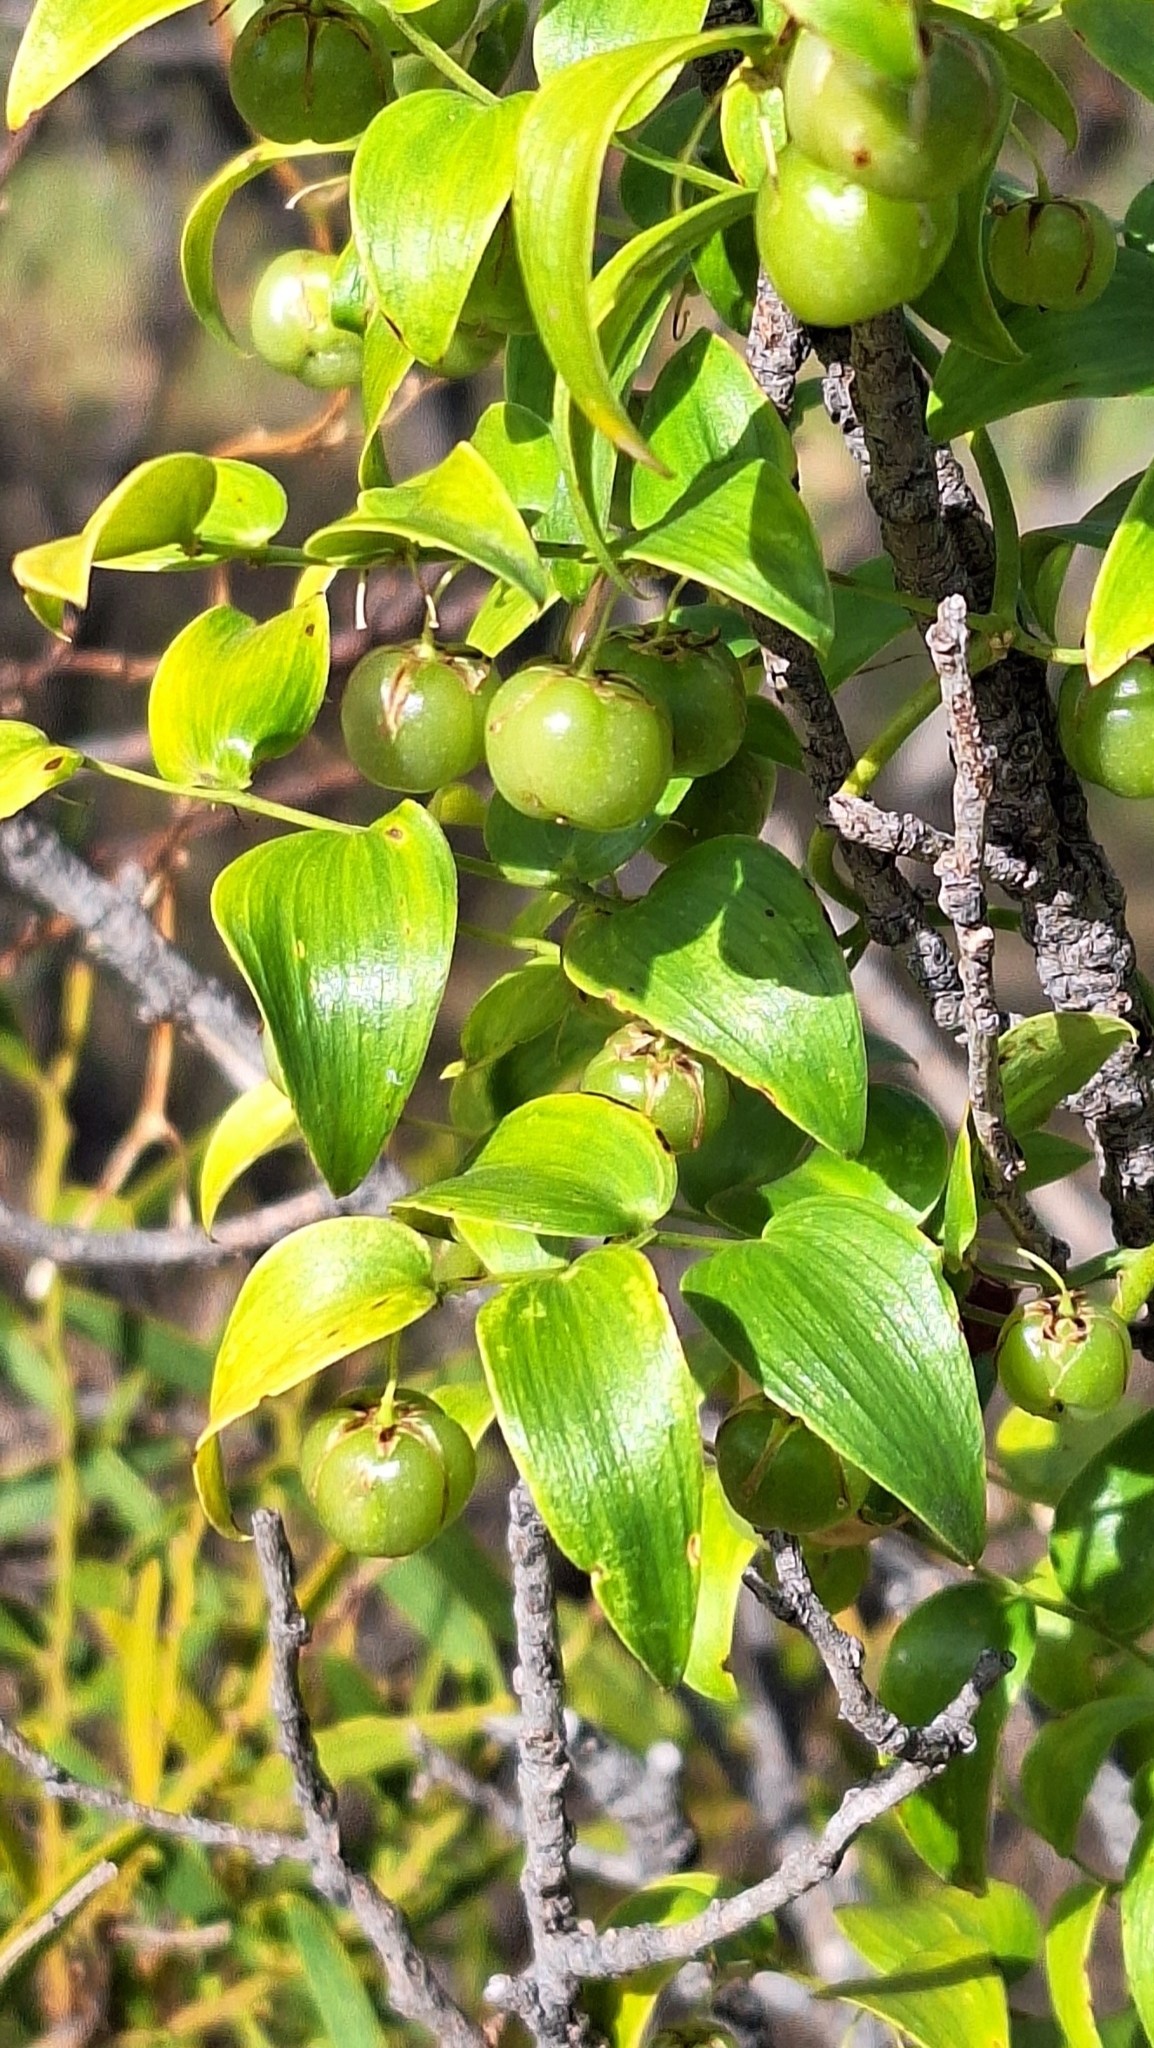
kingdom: Plantae
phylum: Tracheophyta
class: Liliopsida
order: Asparagales
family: Asparagaceae
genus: Asparagus
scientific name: Asparagus asparagoides
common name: African asparagus fern
